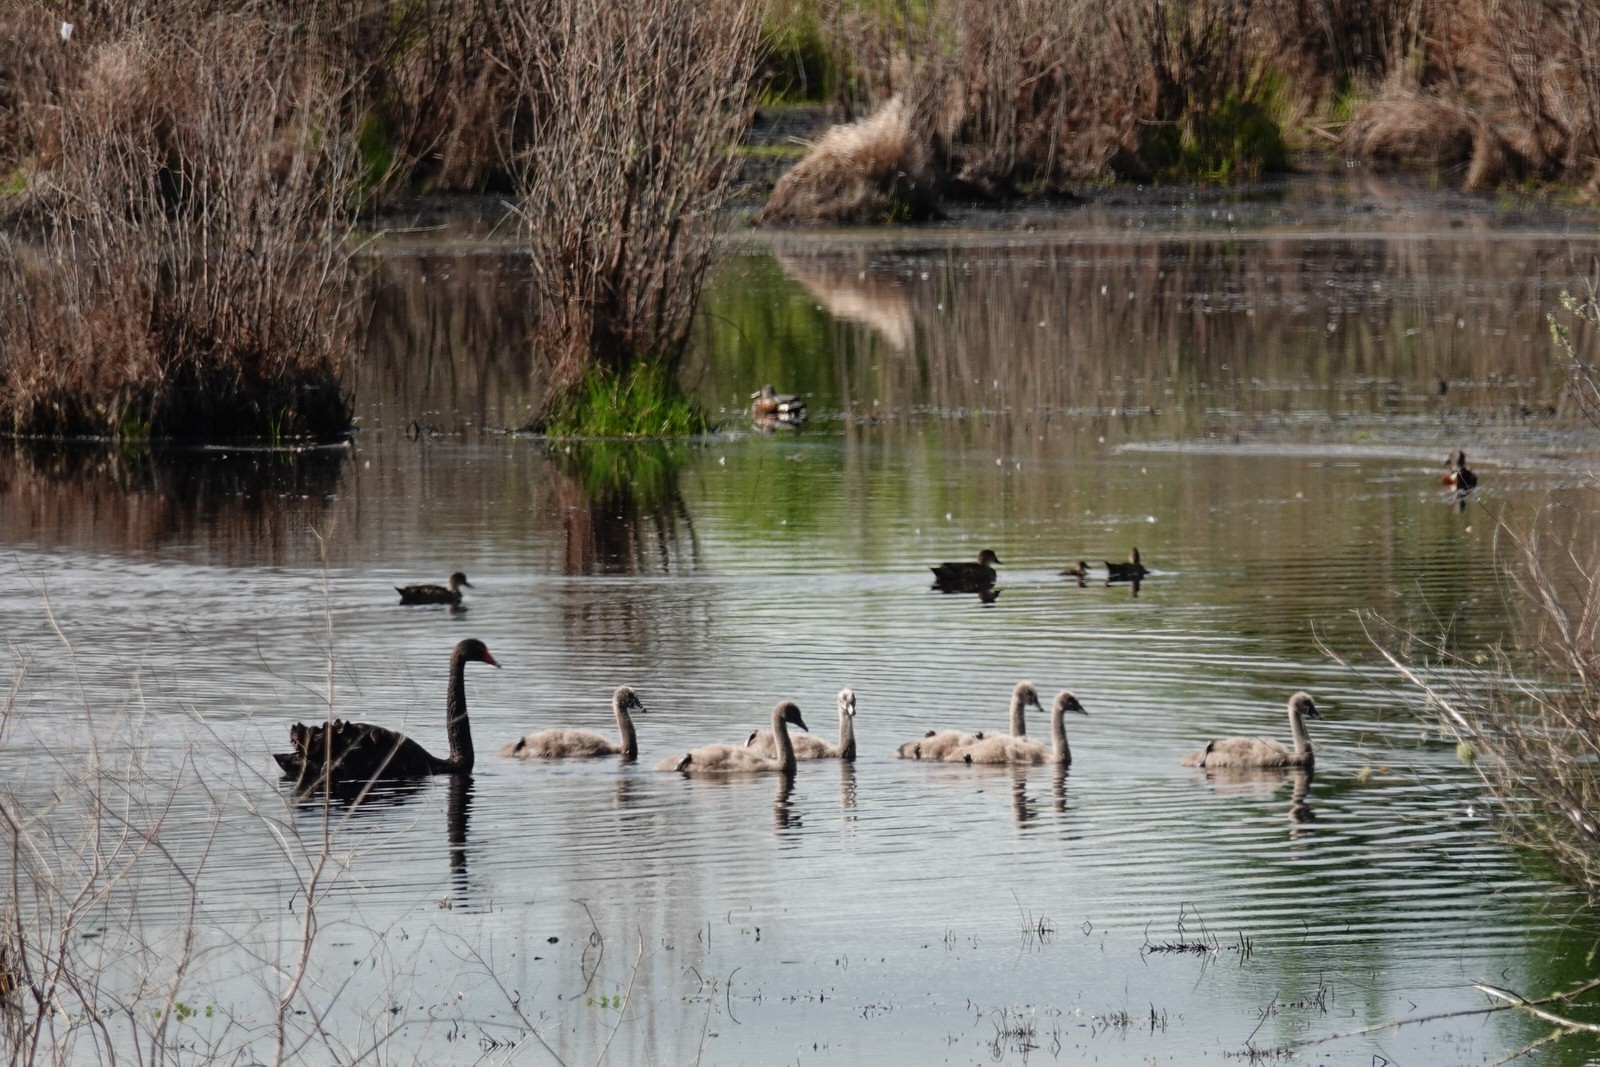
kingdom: Animalia
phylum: Chordata
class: Aves
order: Anseriformes
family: Anatidae
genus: Spatula
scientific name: Spatula rhynchotis
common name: Australian shoveler
